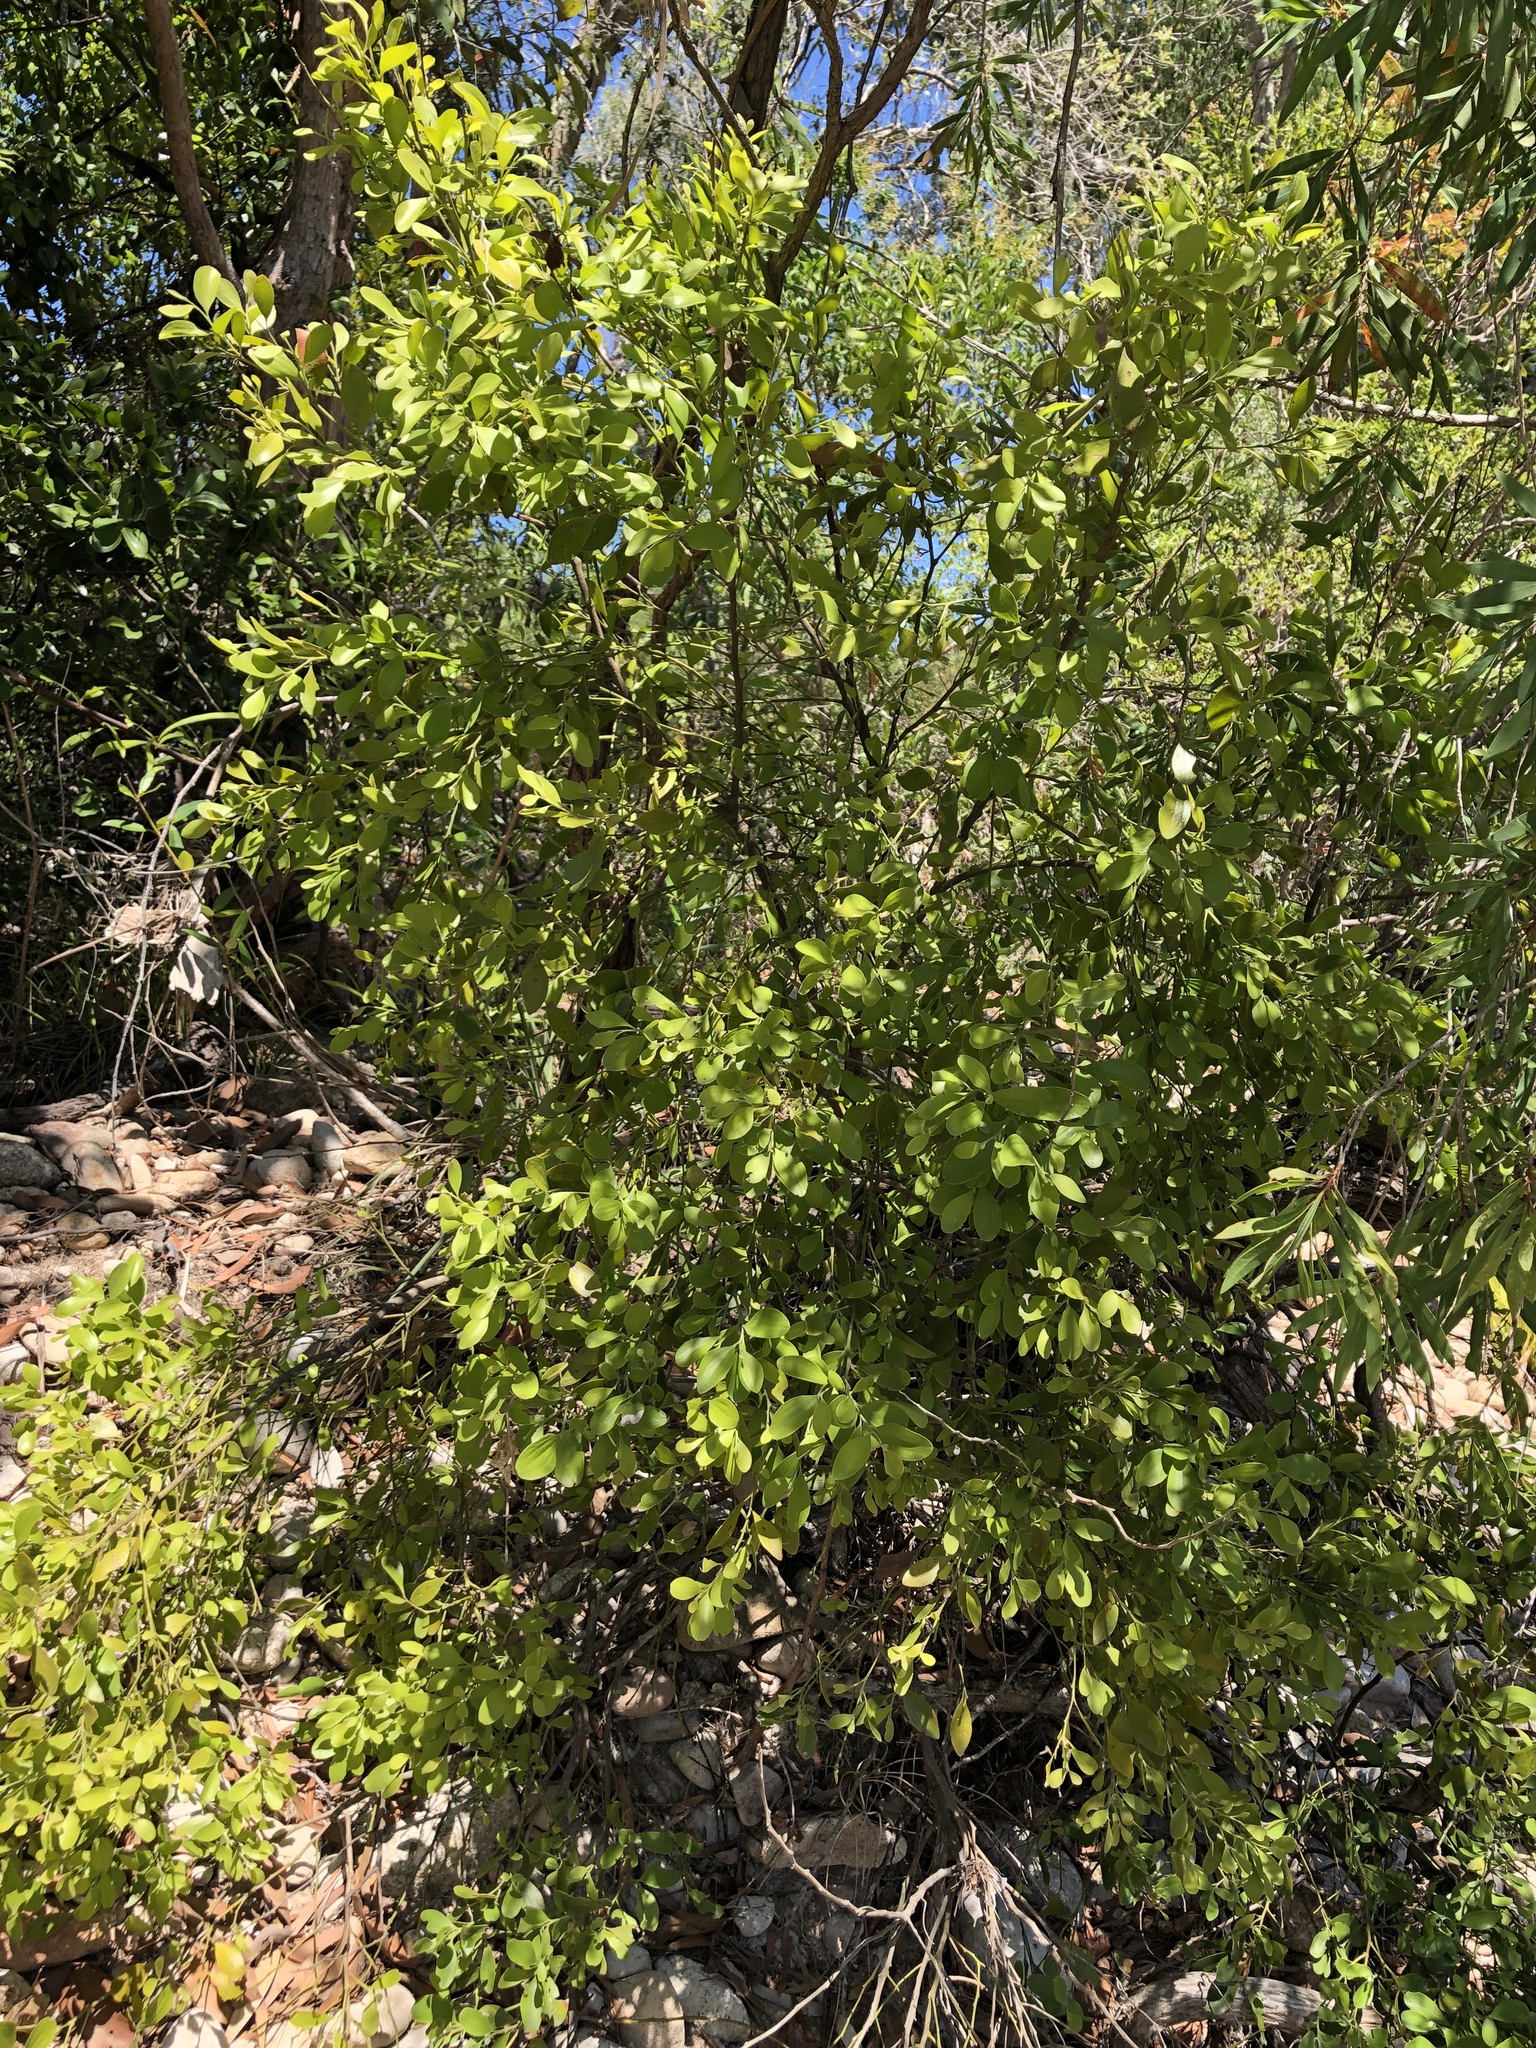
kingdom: Plantae
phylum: Tracheophyta
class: Magnoliopsida
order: Santalales
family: Santalaceae
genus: Exocarpos
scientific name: Exocarpos latifolius
